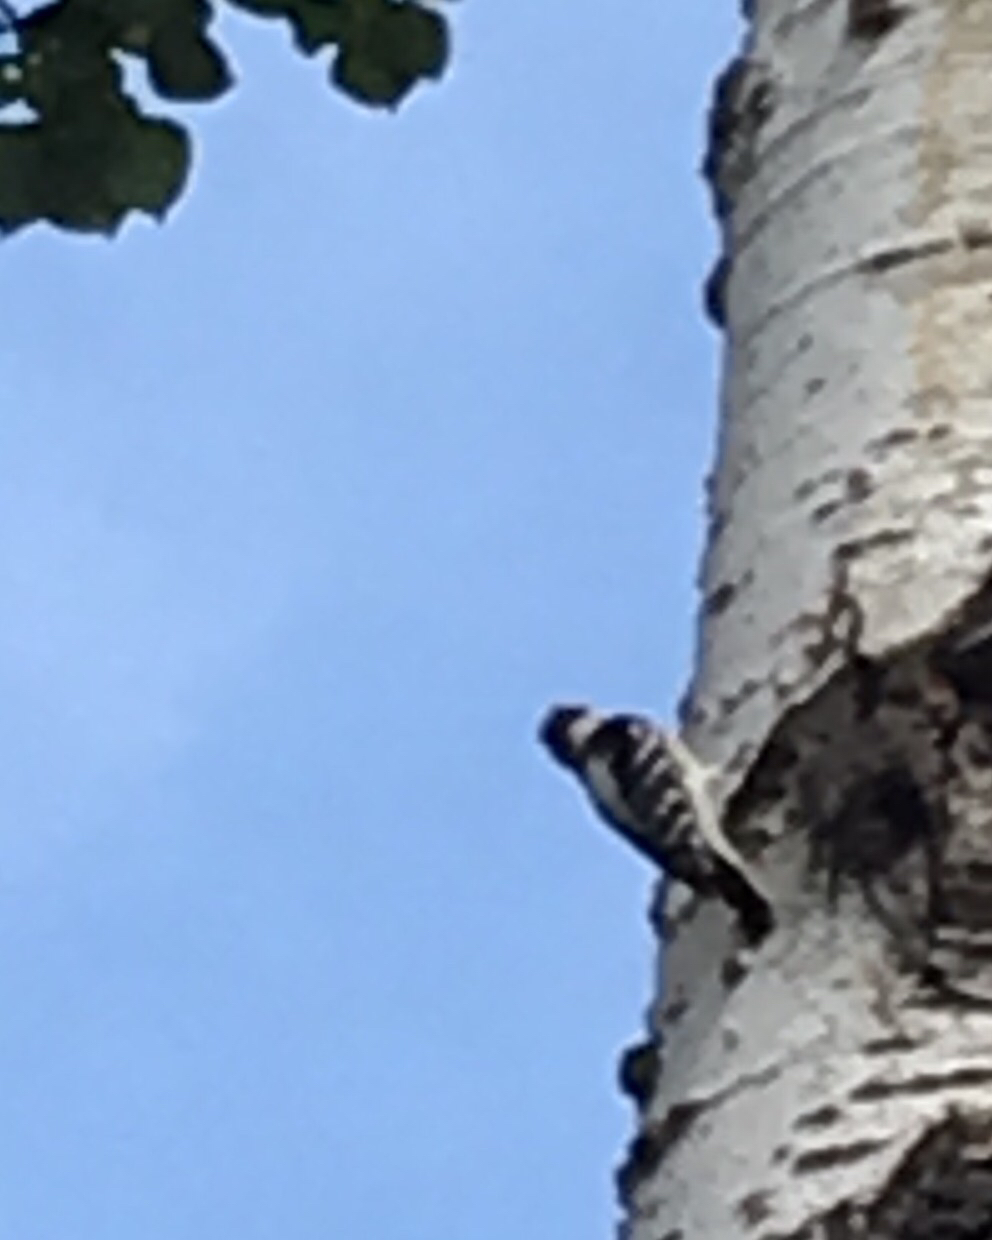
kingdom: Animalia
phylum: Chordata
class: Aves
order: Piciformes
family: Picidae
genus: Dryobates
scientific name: Dryobates pubescens
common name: Downy woodpecker
